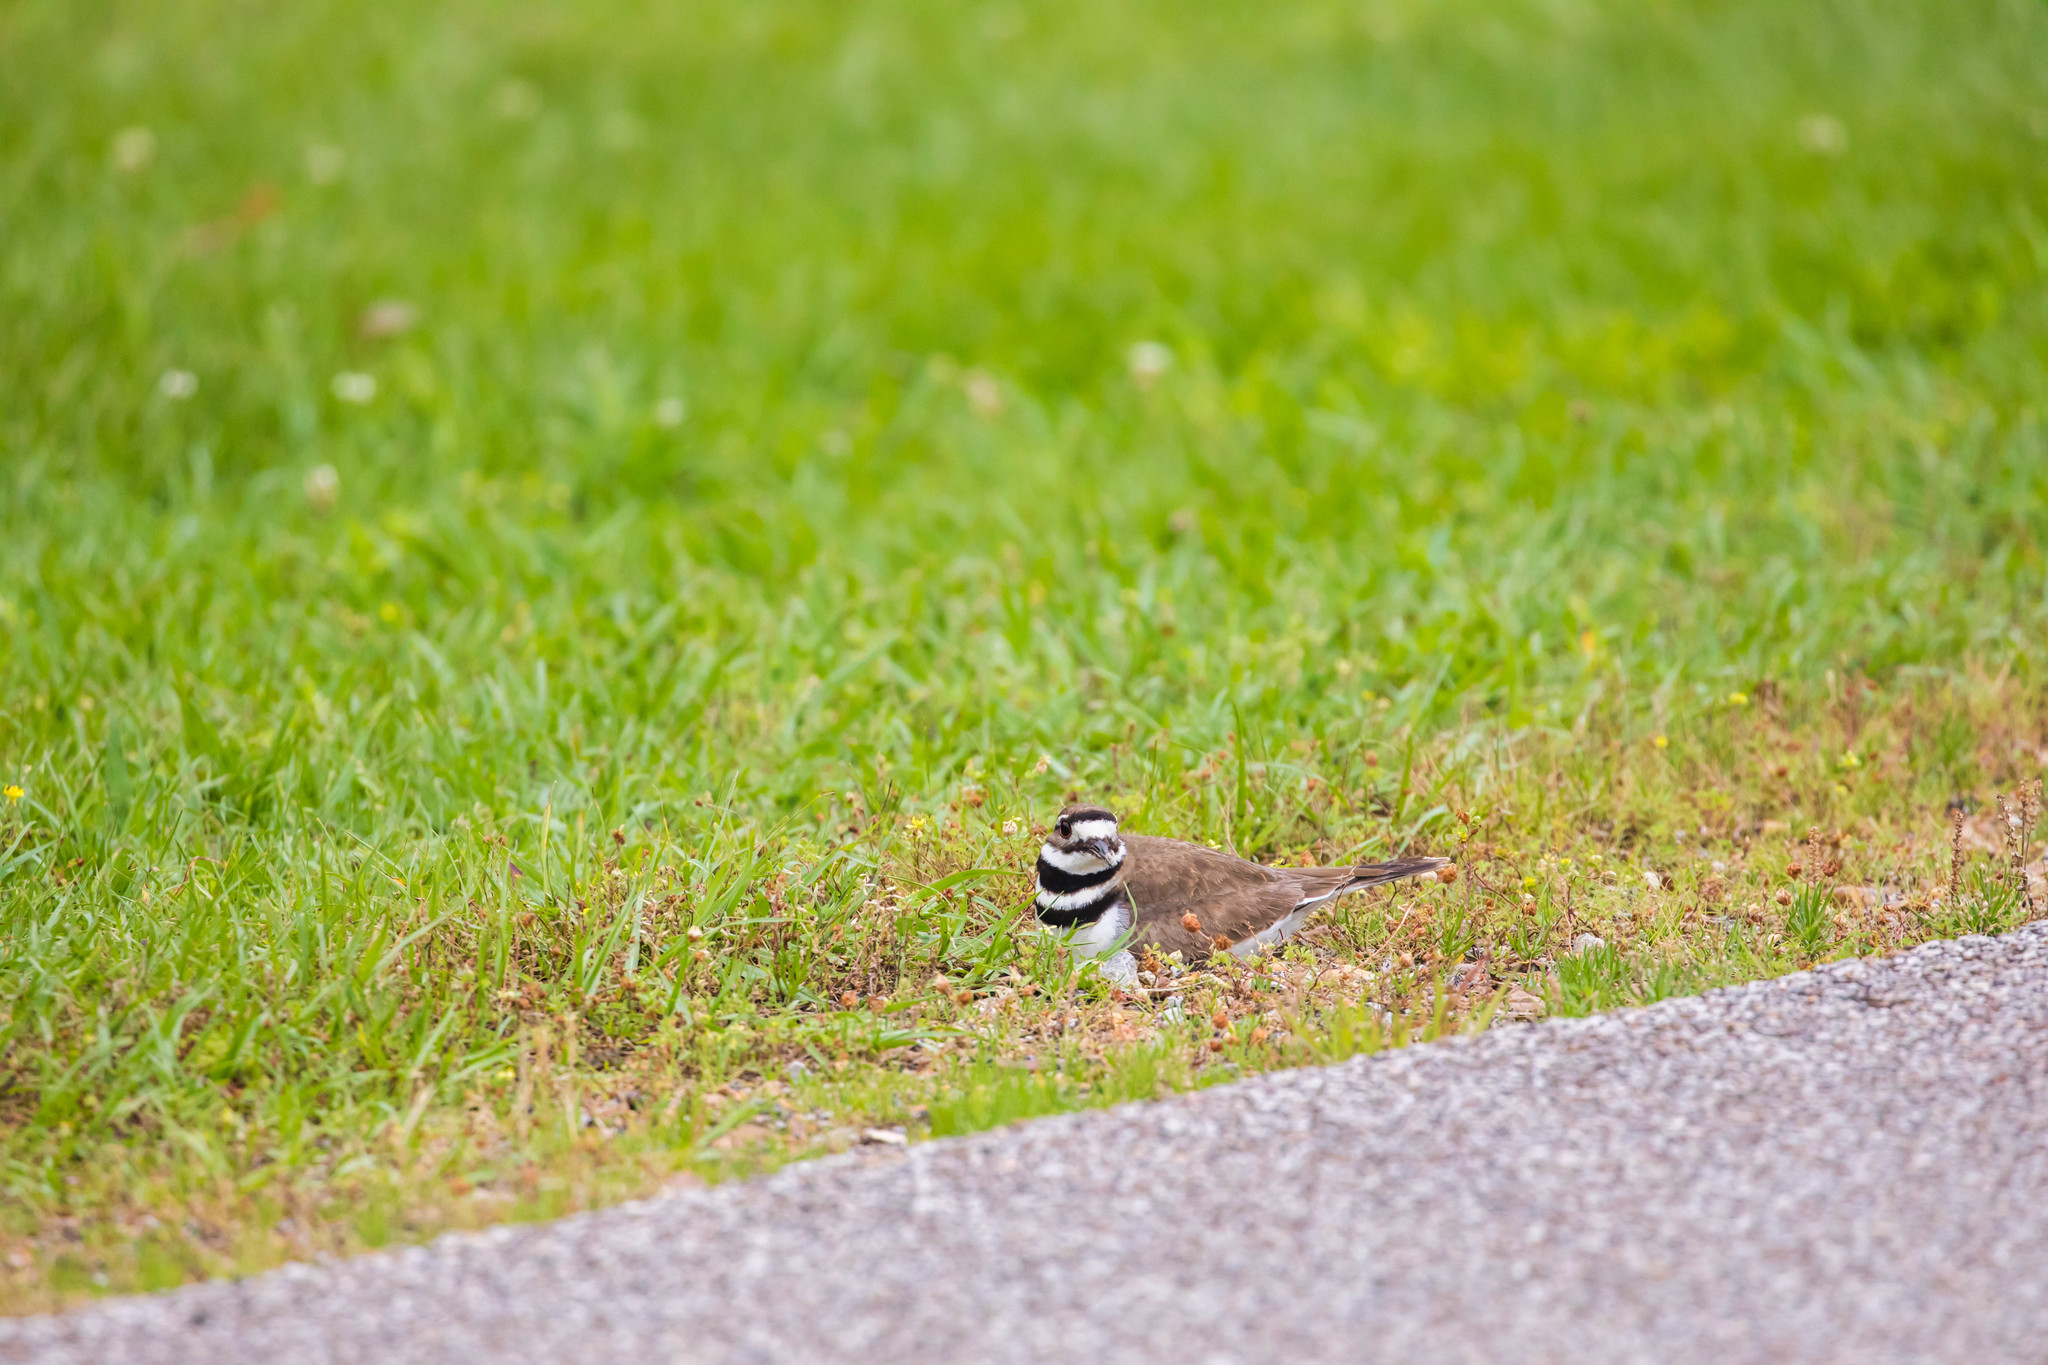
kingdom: Animalia
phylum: Chordata
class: Aves
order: Charadriiformes
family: Charadriidae
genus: Charadrius
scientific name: Charadrius vociferus
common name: Killdeer
